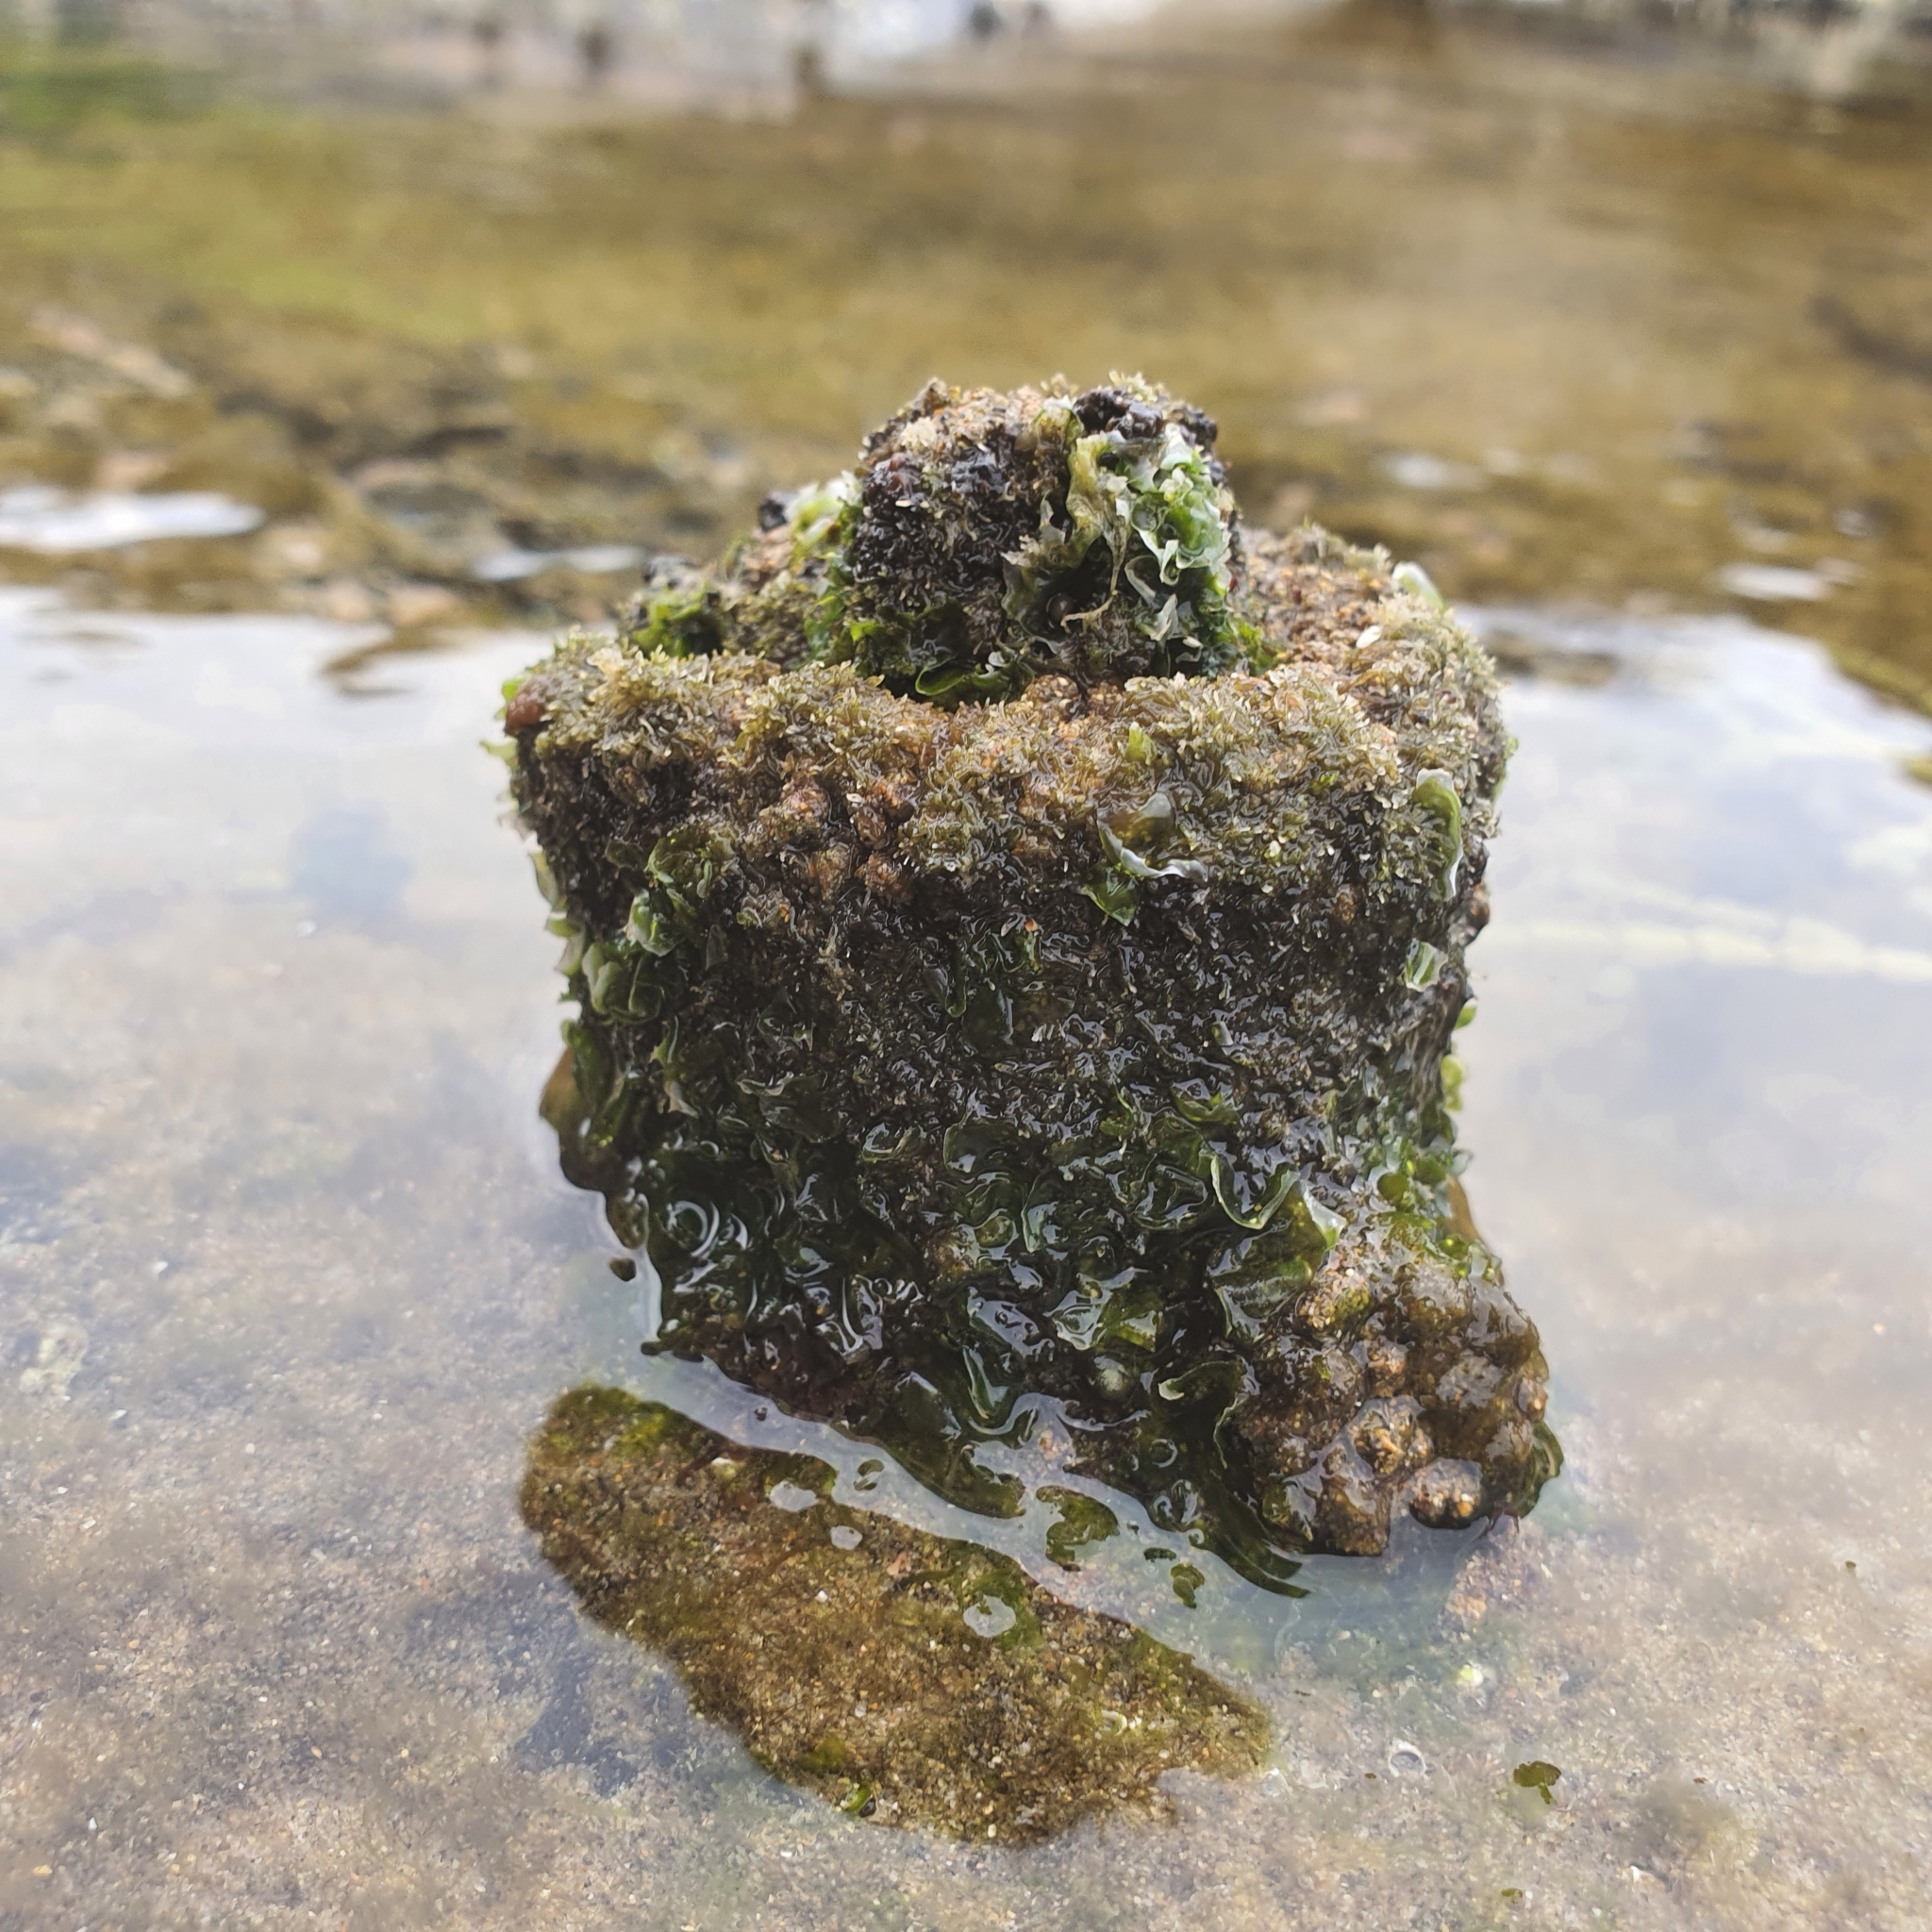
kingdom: Animalia
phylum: Chordata
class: Ascidiacea
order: Stolidobranchia
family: Pyuridae
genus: Pyura
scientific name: Pyura praeputialis
